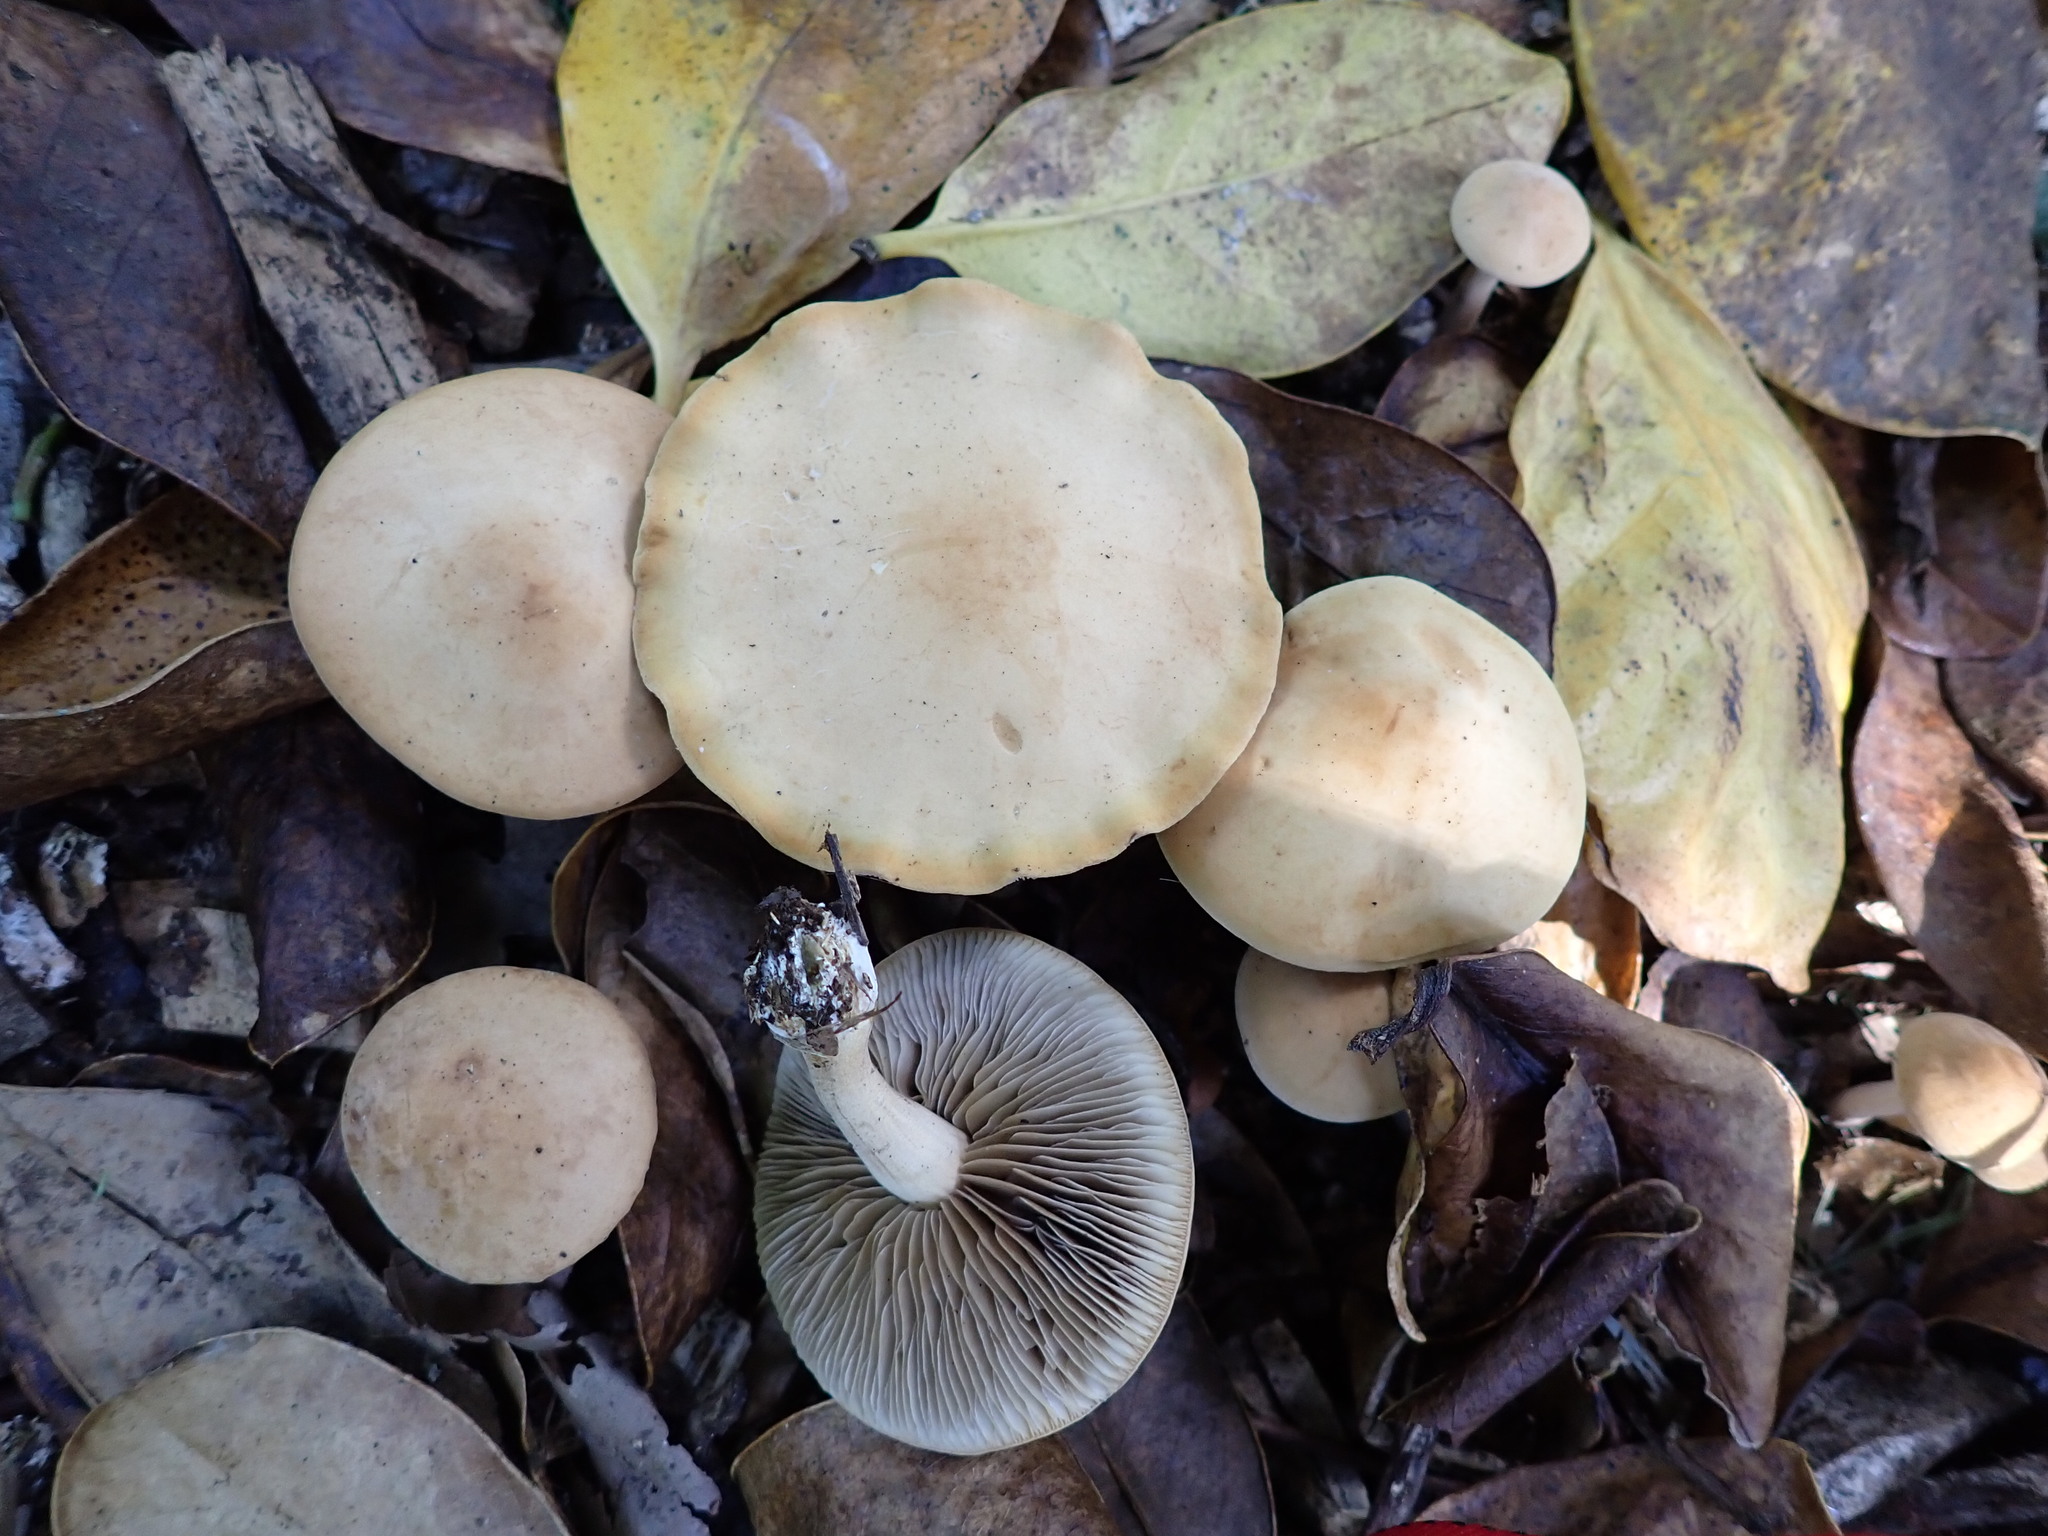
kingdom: Fungi
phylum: Basidiomycota
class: Agaricomycetes
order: Agaricales
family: Strophariaceae
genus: Agrocybe
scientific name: Agrocybe putaminum
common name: Mulch fieldcap
